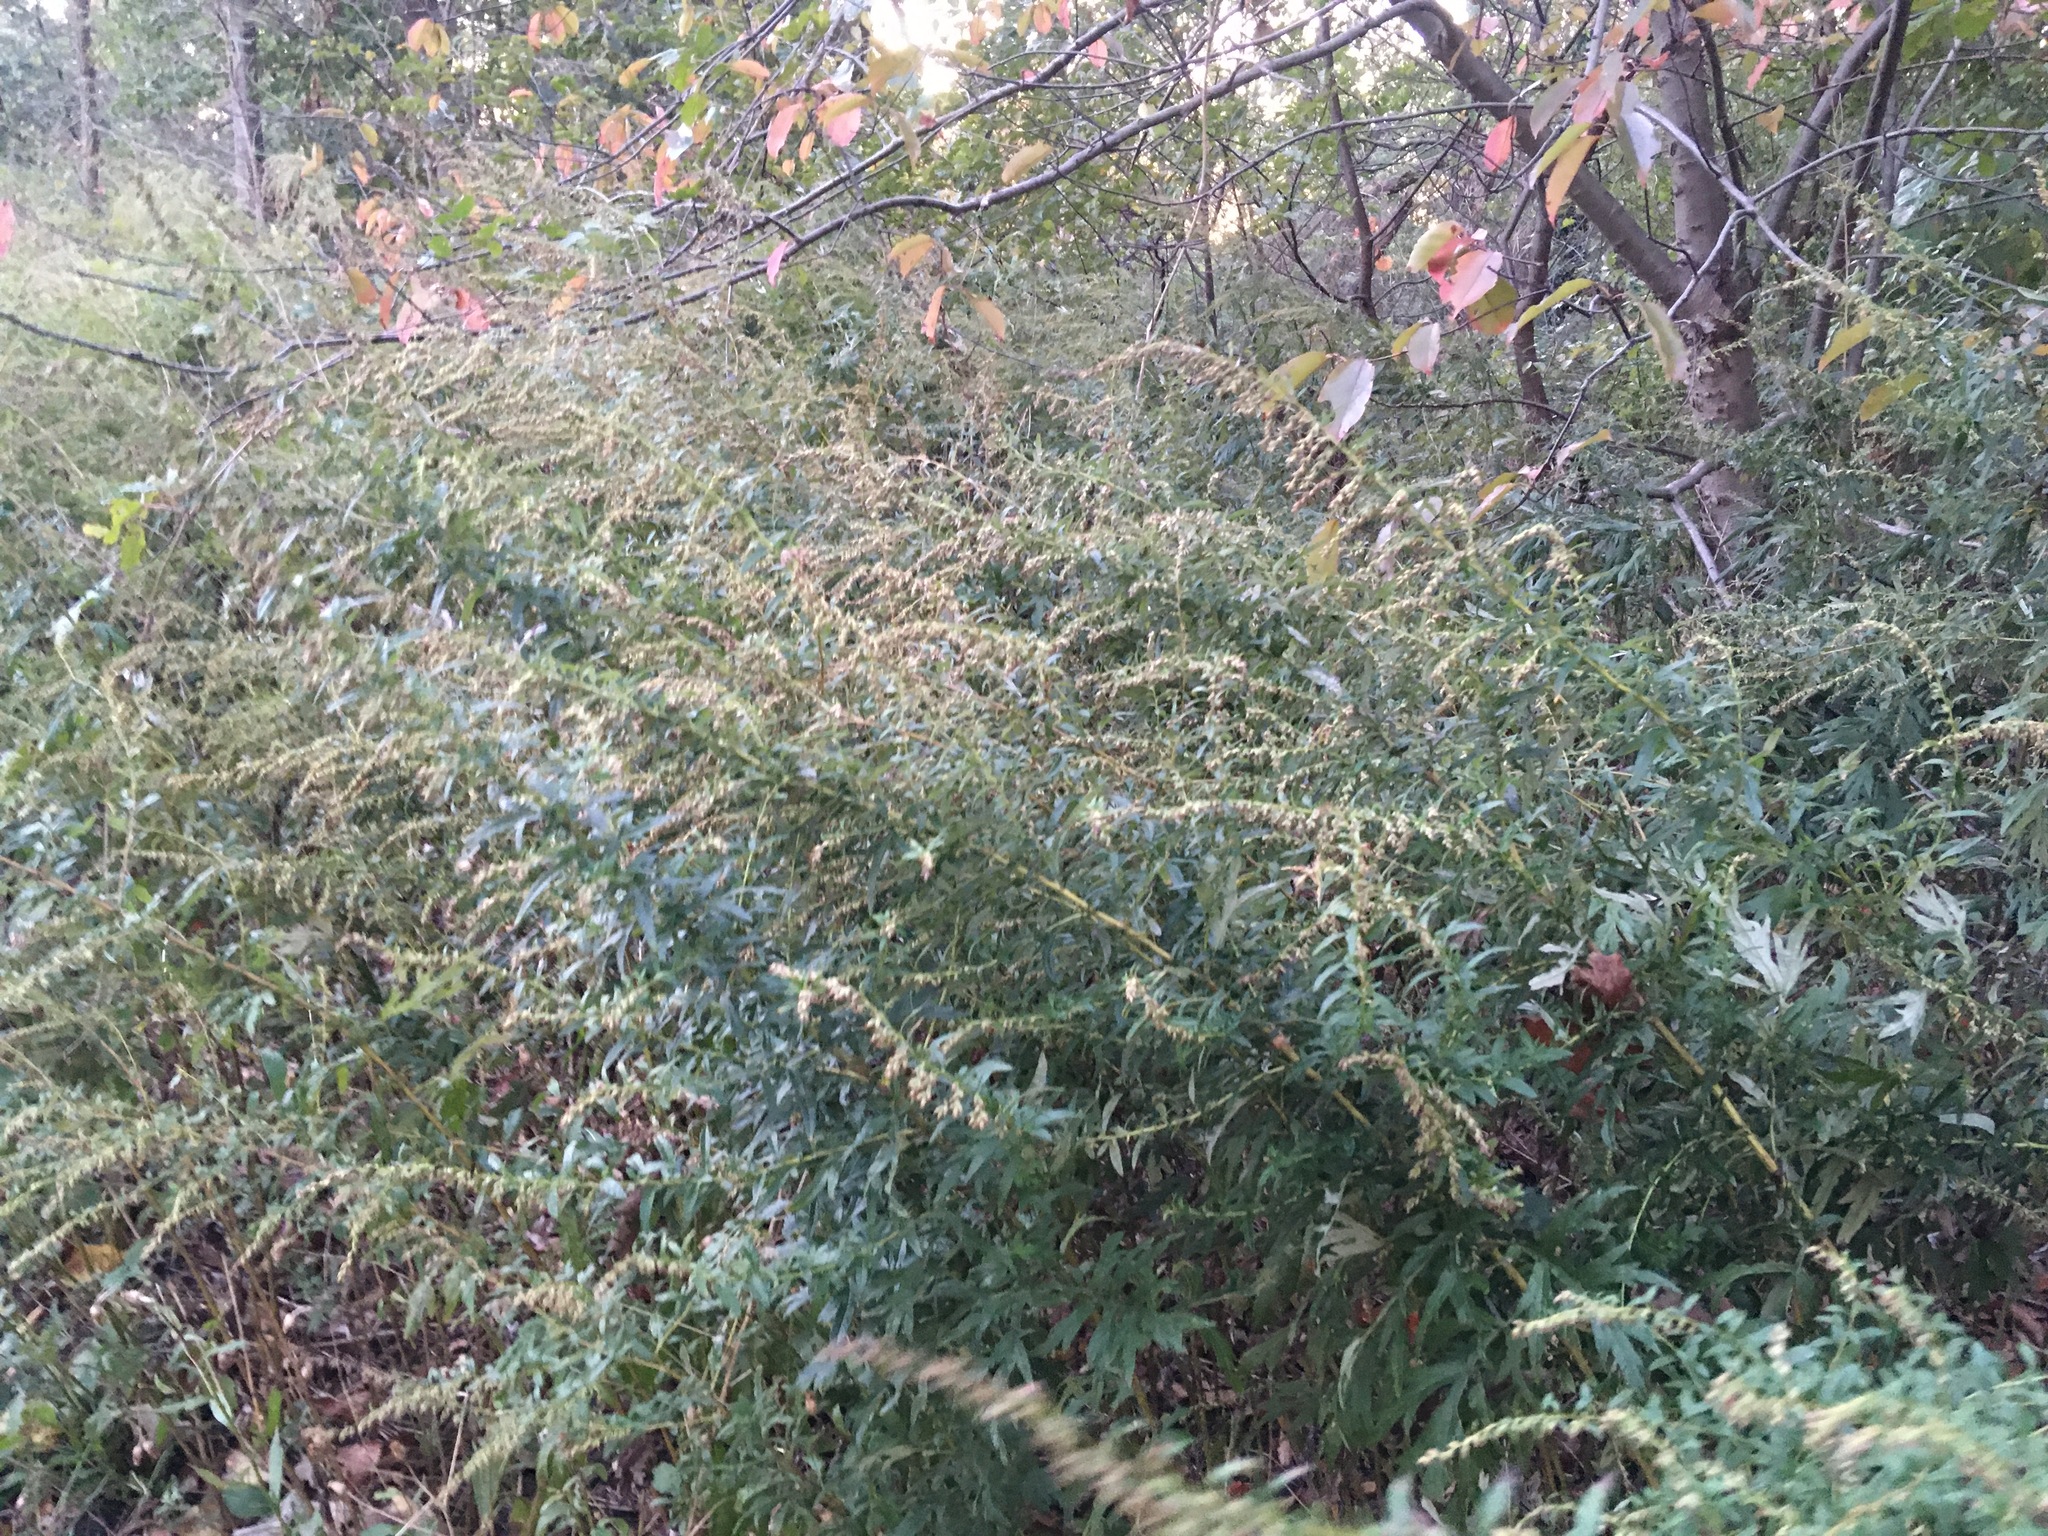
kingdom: Plantae
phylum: Tracheophyta
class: Magnoliopsida
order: Asterales
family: Asteraceae
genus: Artemisia
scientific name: Artemisia vulgaris
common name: Mugwort
